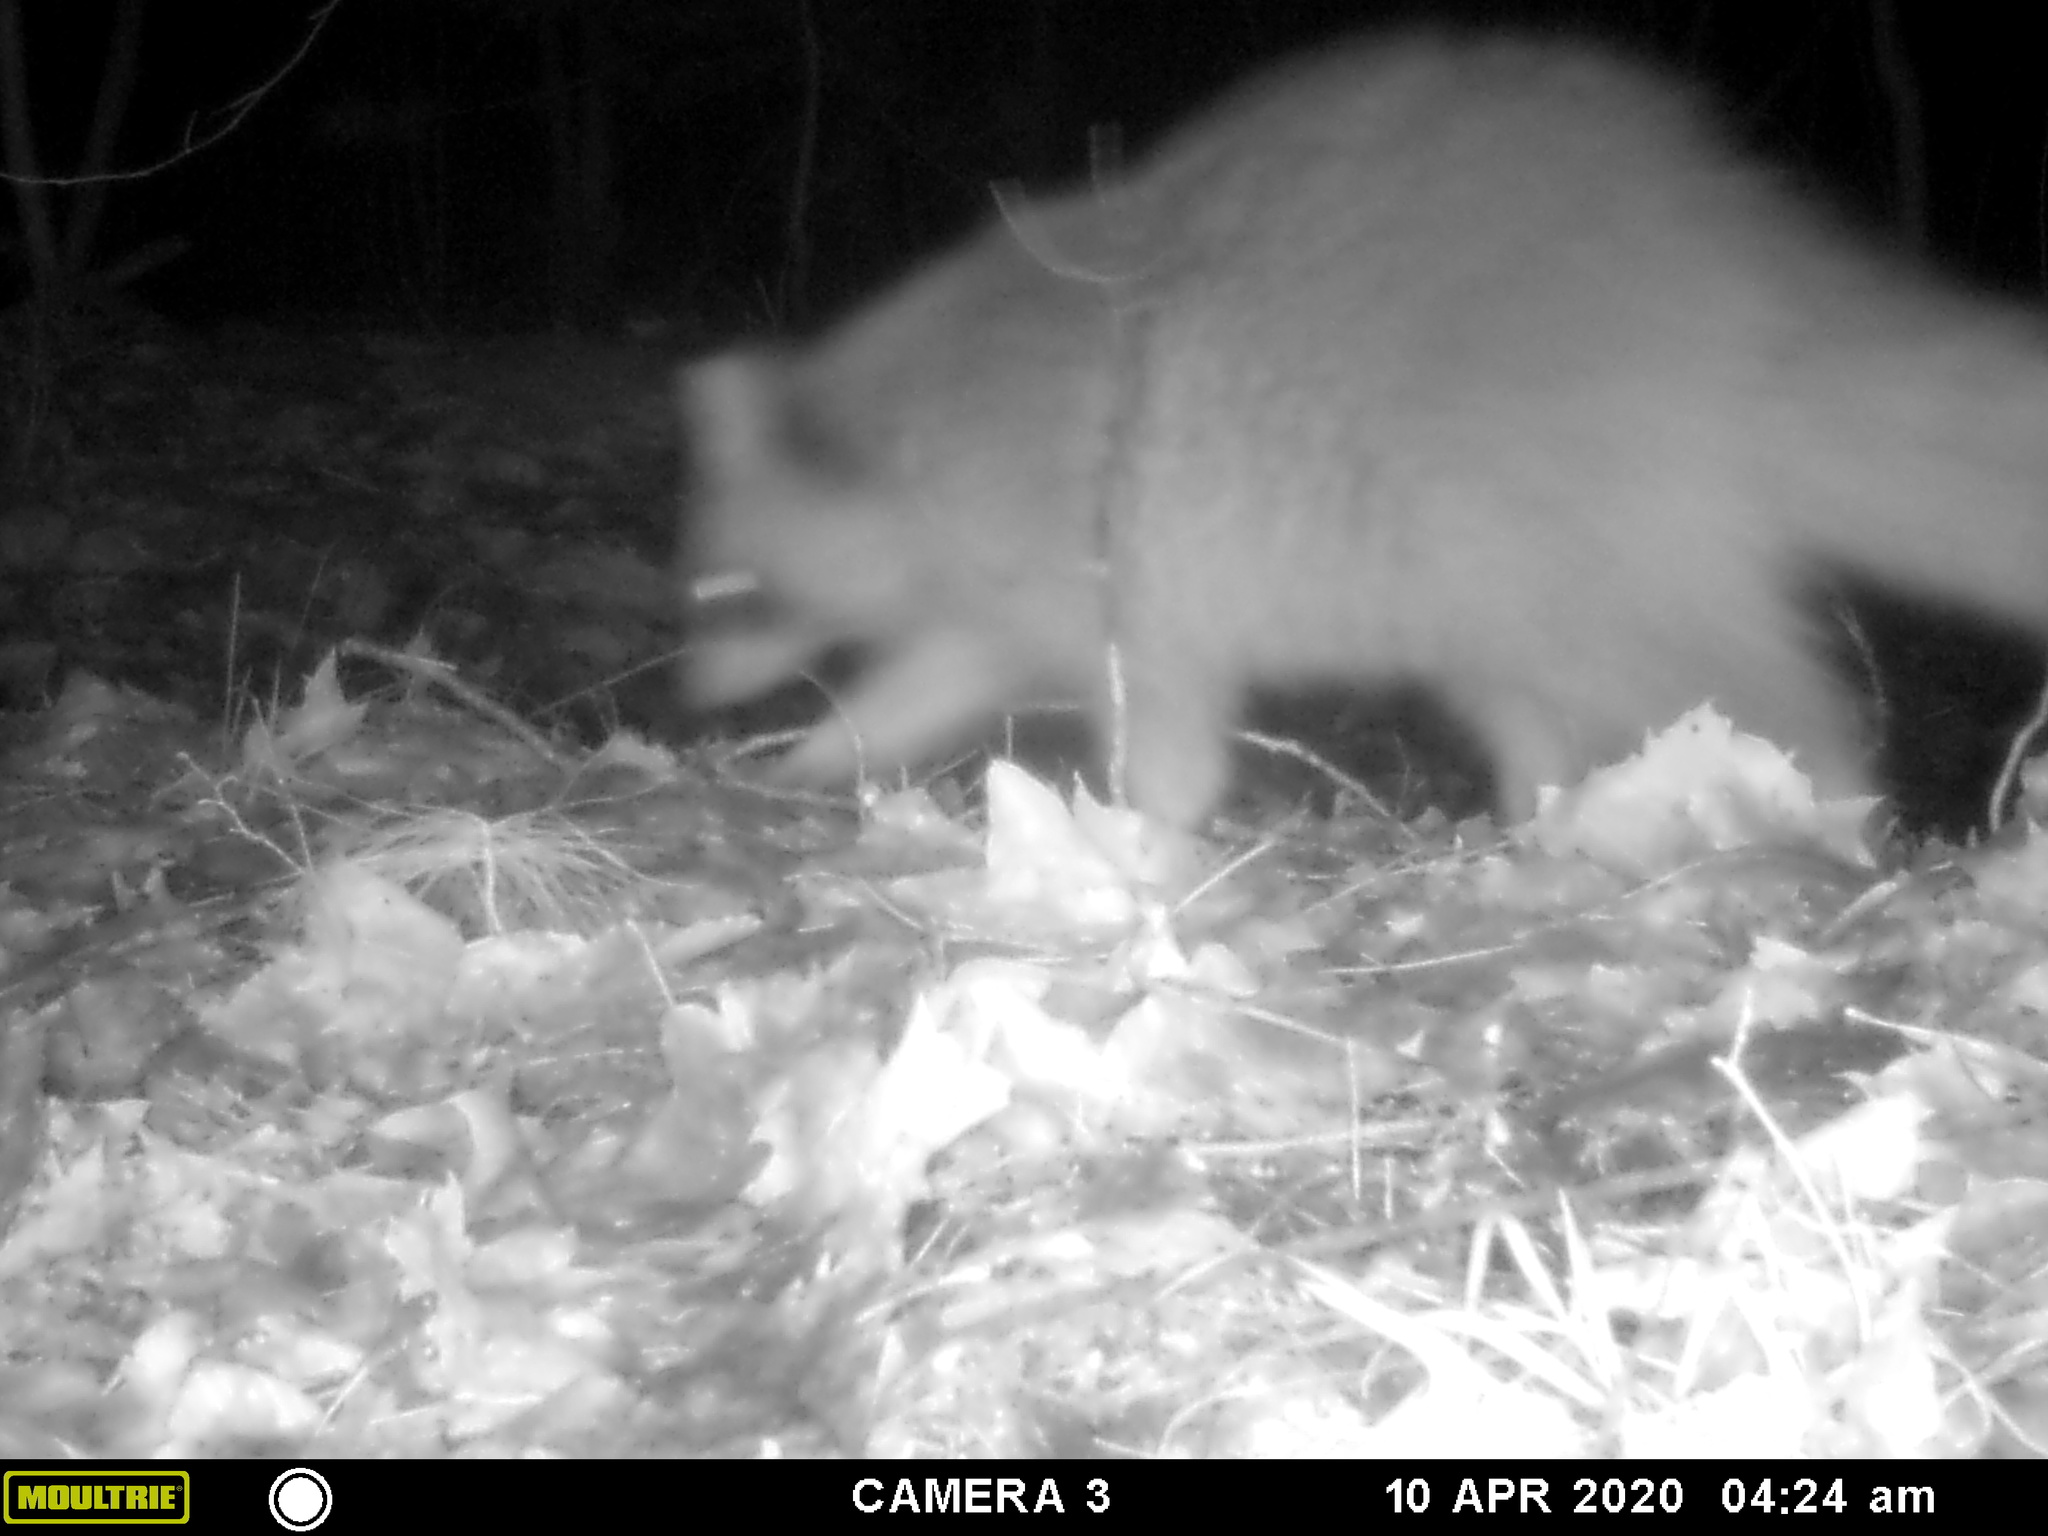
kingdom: Animalia
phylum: Chordata
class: Mammalia
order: Carnivora
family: Procyonidae
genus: Procyon
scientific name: Procyon lotor
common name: Raccoon
